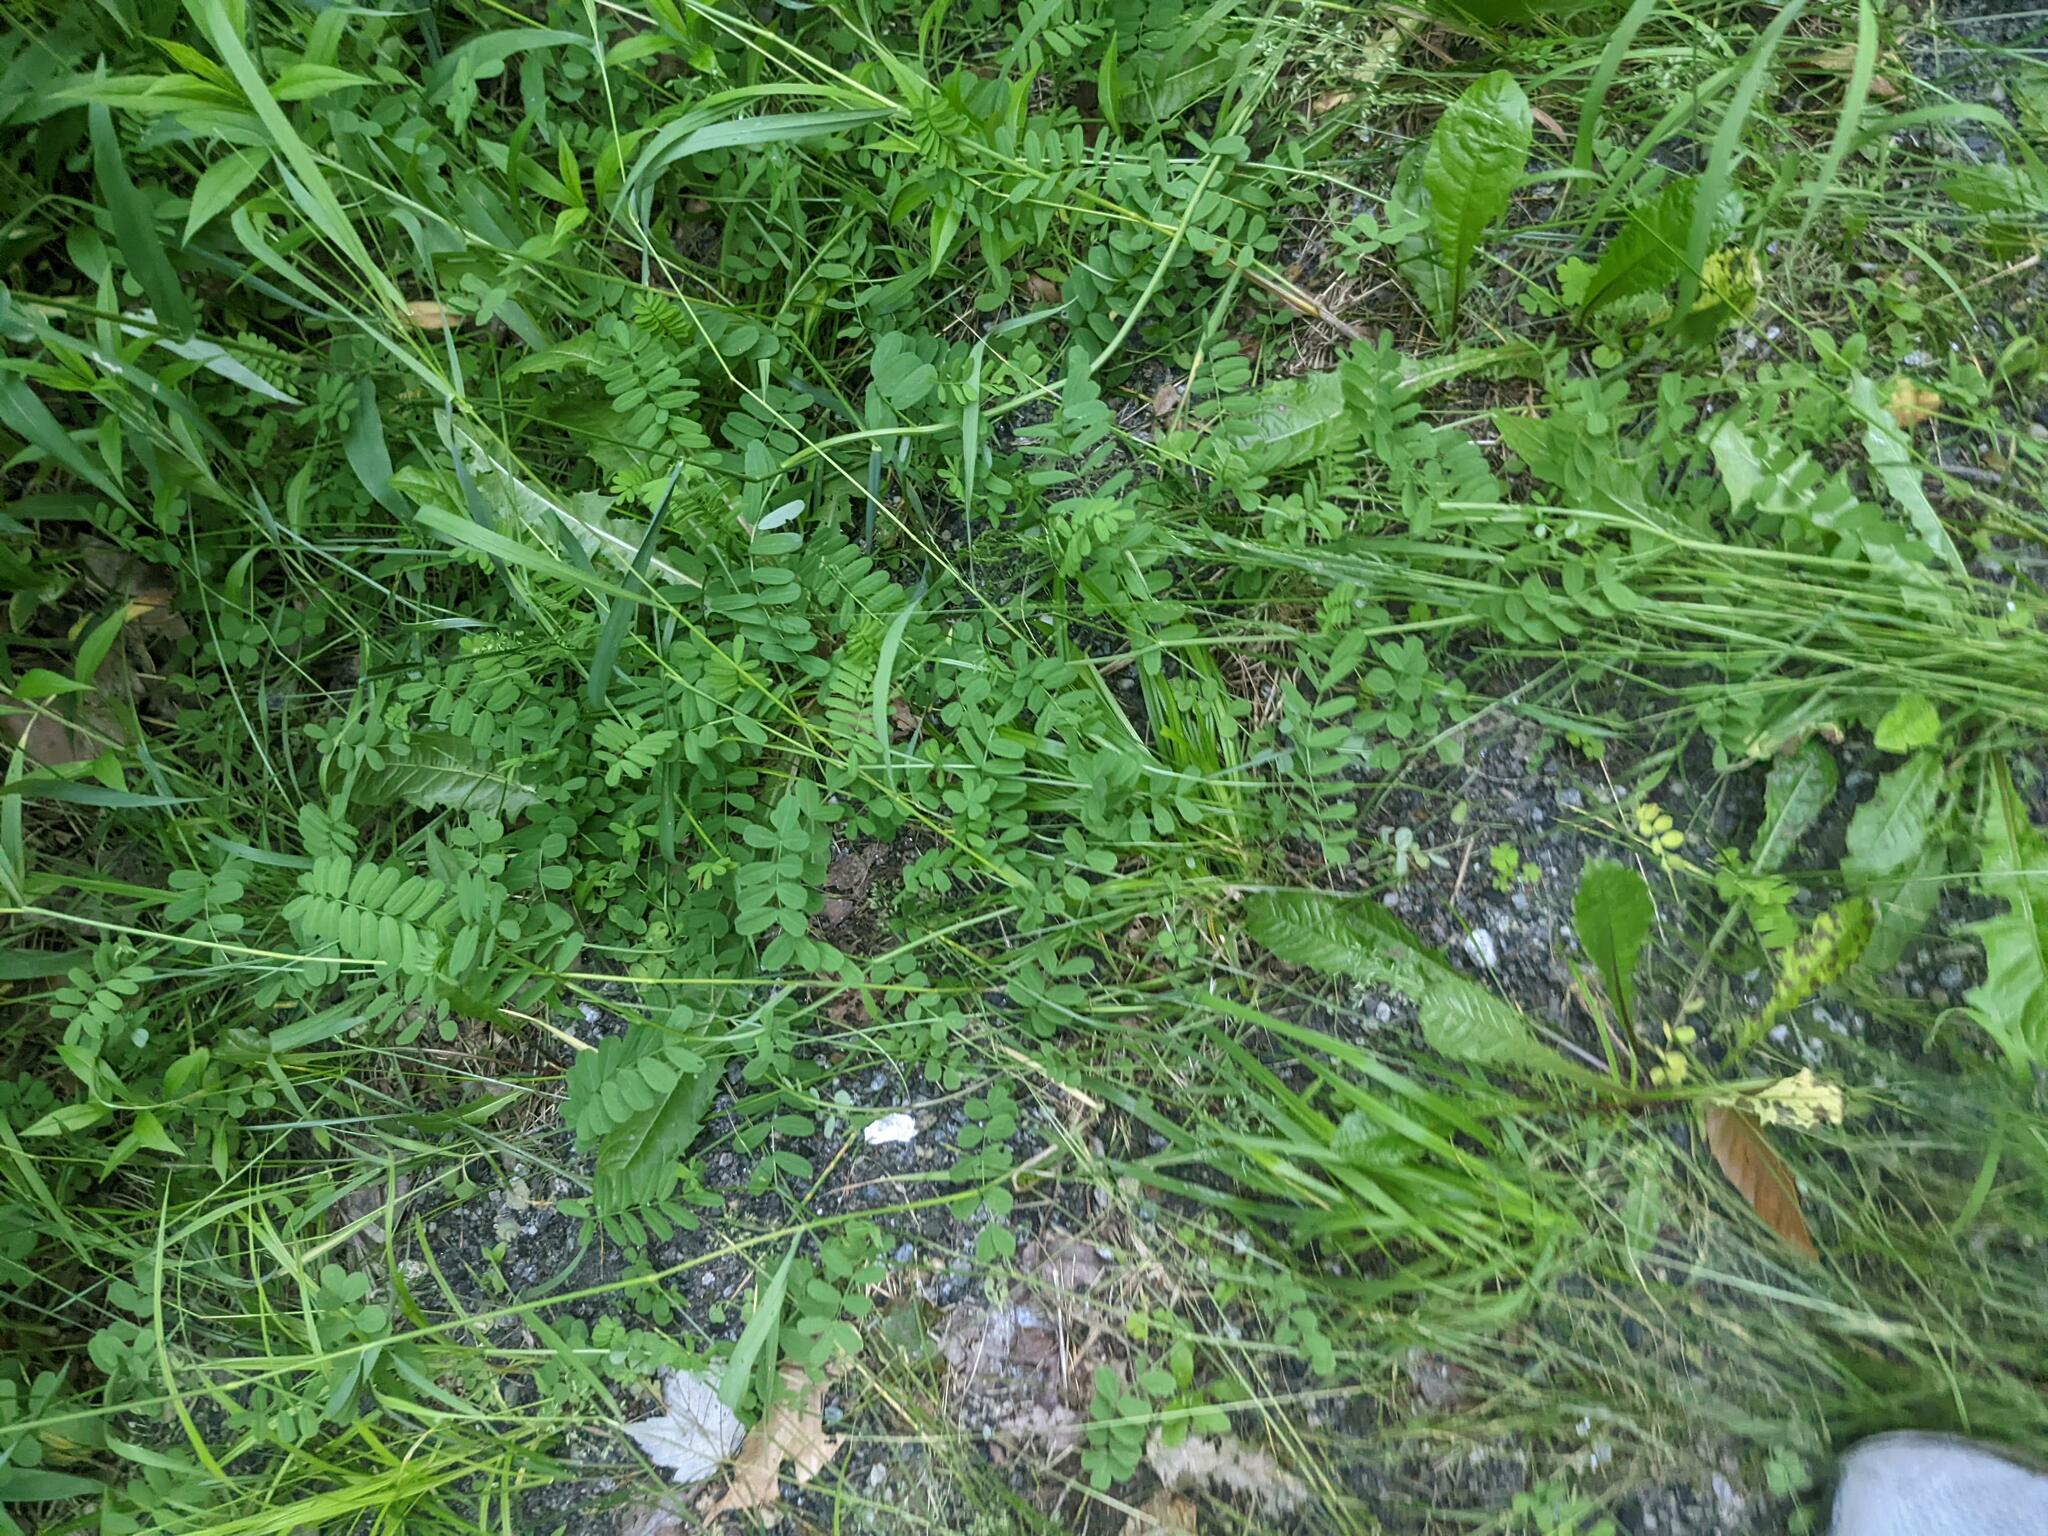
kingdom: Plantae
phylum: Tracheophyta
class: Magnoliopsida
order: Fabales
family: Fabaceae
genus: Coronilla
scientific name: Coronilla varia
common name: Crownvetch
